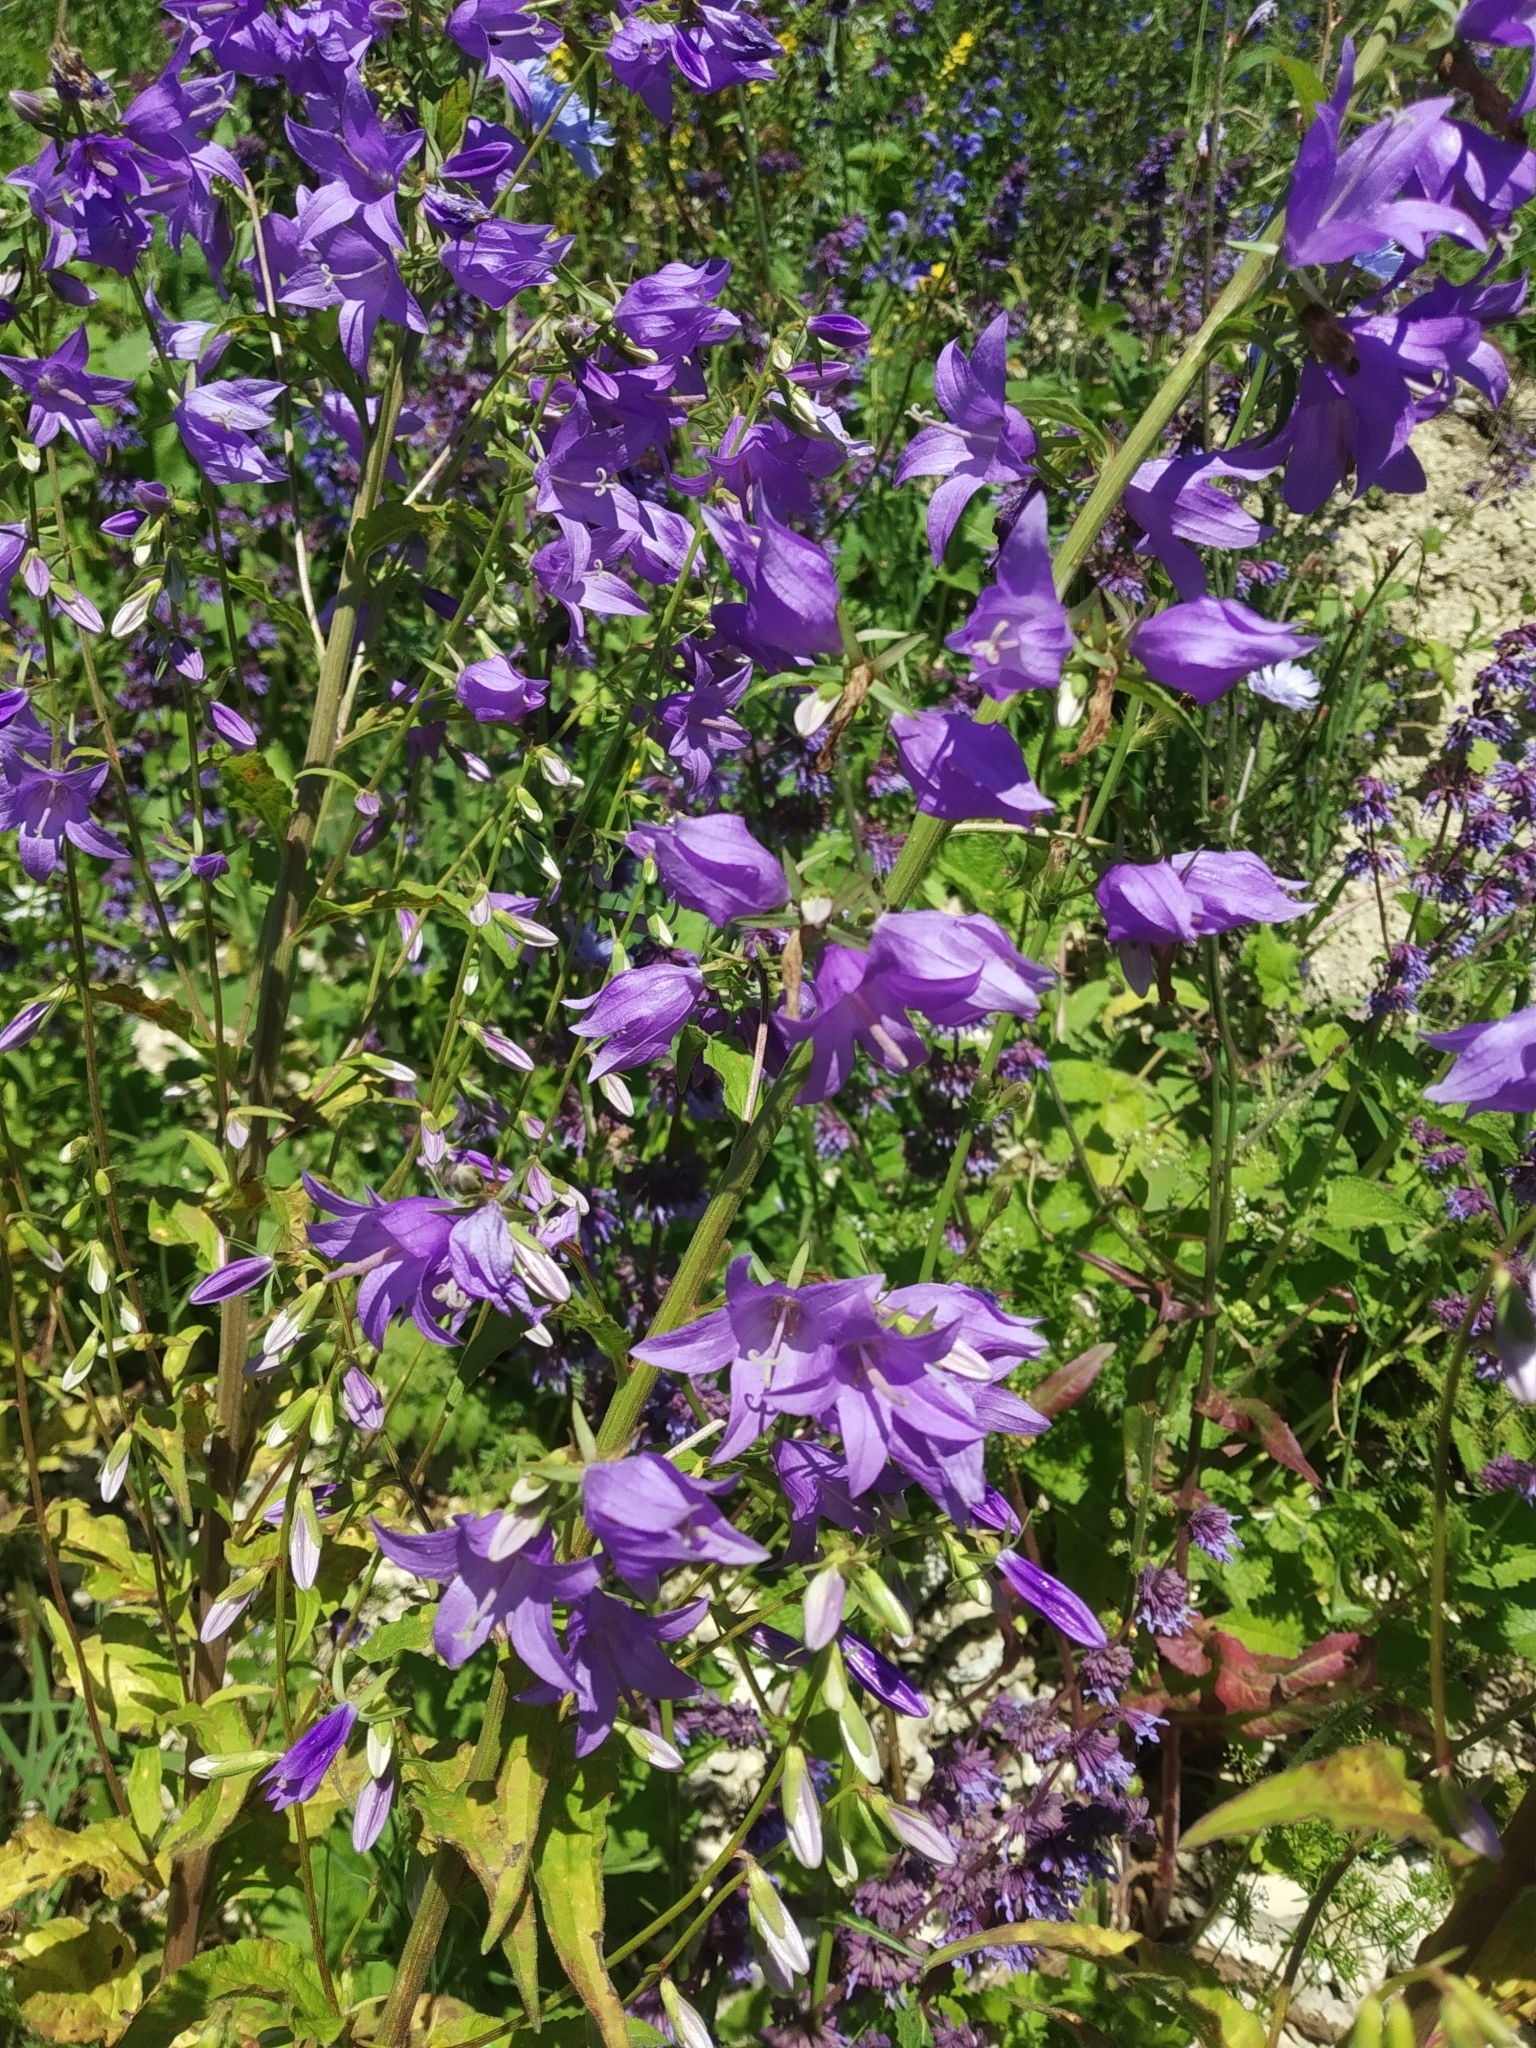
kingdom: Plantae
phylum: Tracheophyta
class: Magnoliopsida
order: Asterales
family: Campanulaceae
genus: Campanula
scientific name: Campanula rapunculoides
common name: Creeping bellflower
